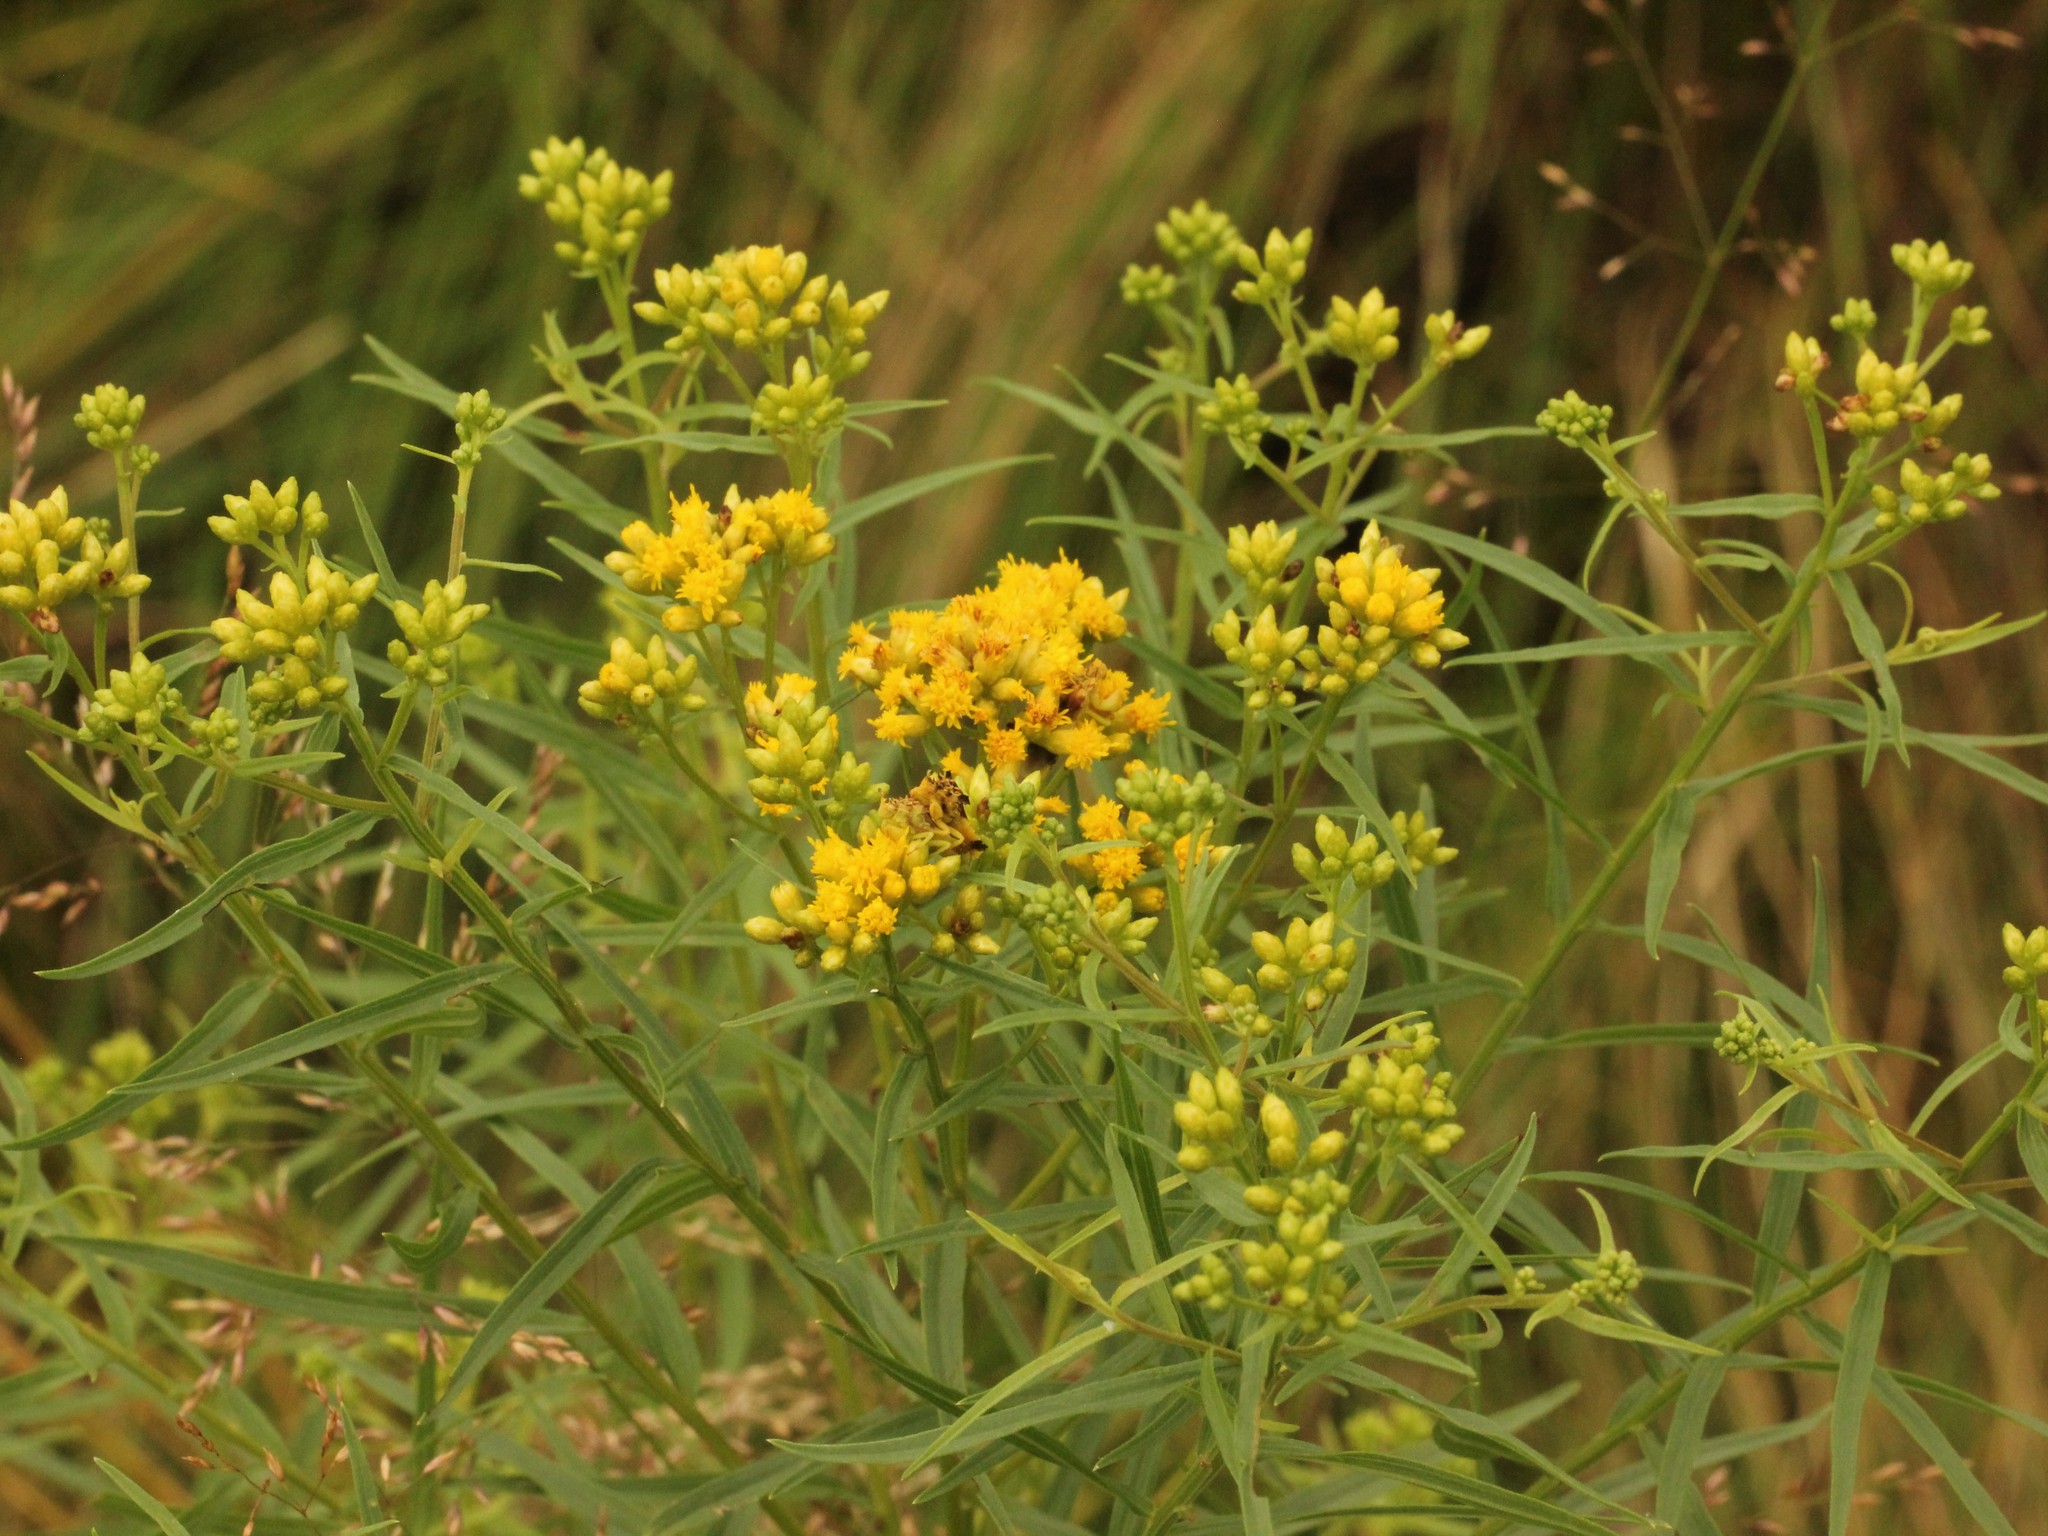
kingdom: Plantae
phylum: Tracheophyta
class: Magnoliopsida
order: Asterales
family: Asteraceae
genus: Euthamia
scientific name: Euthamia graminifolia
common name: Common goldentop
